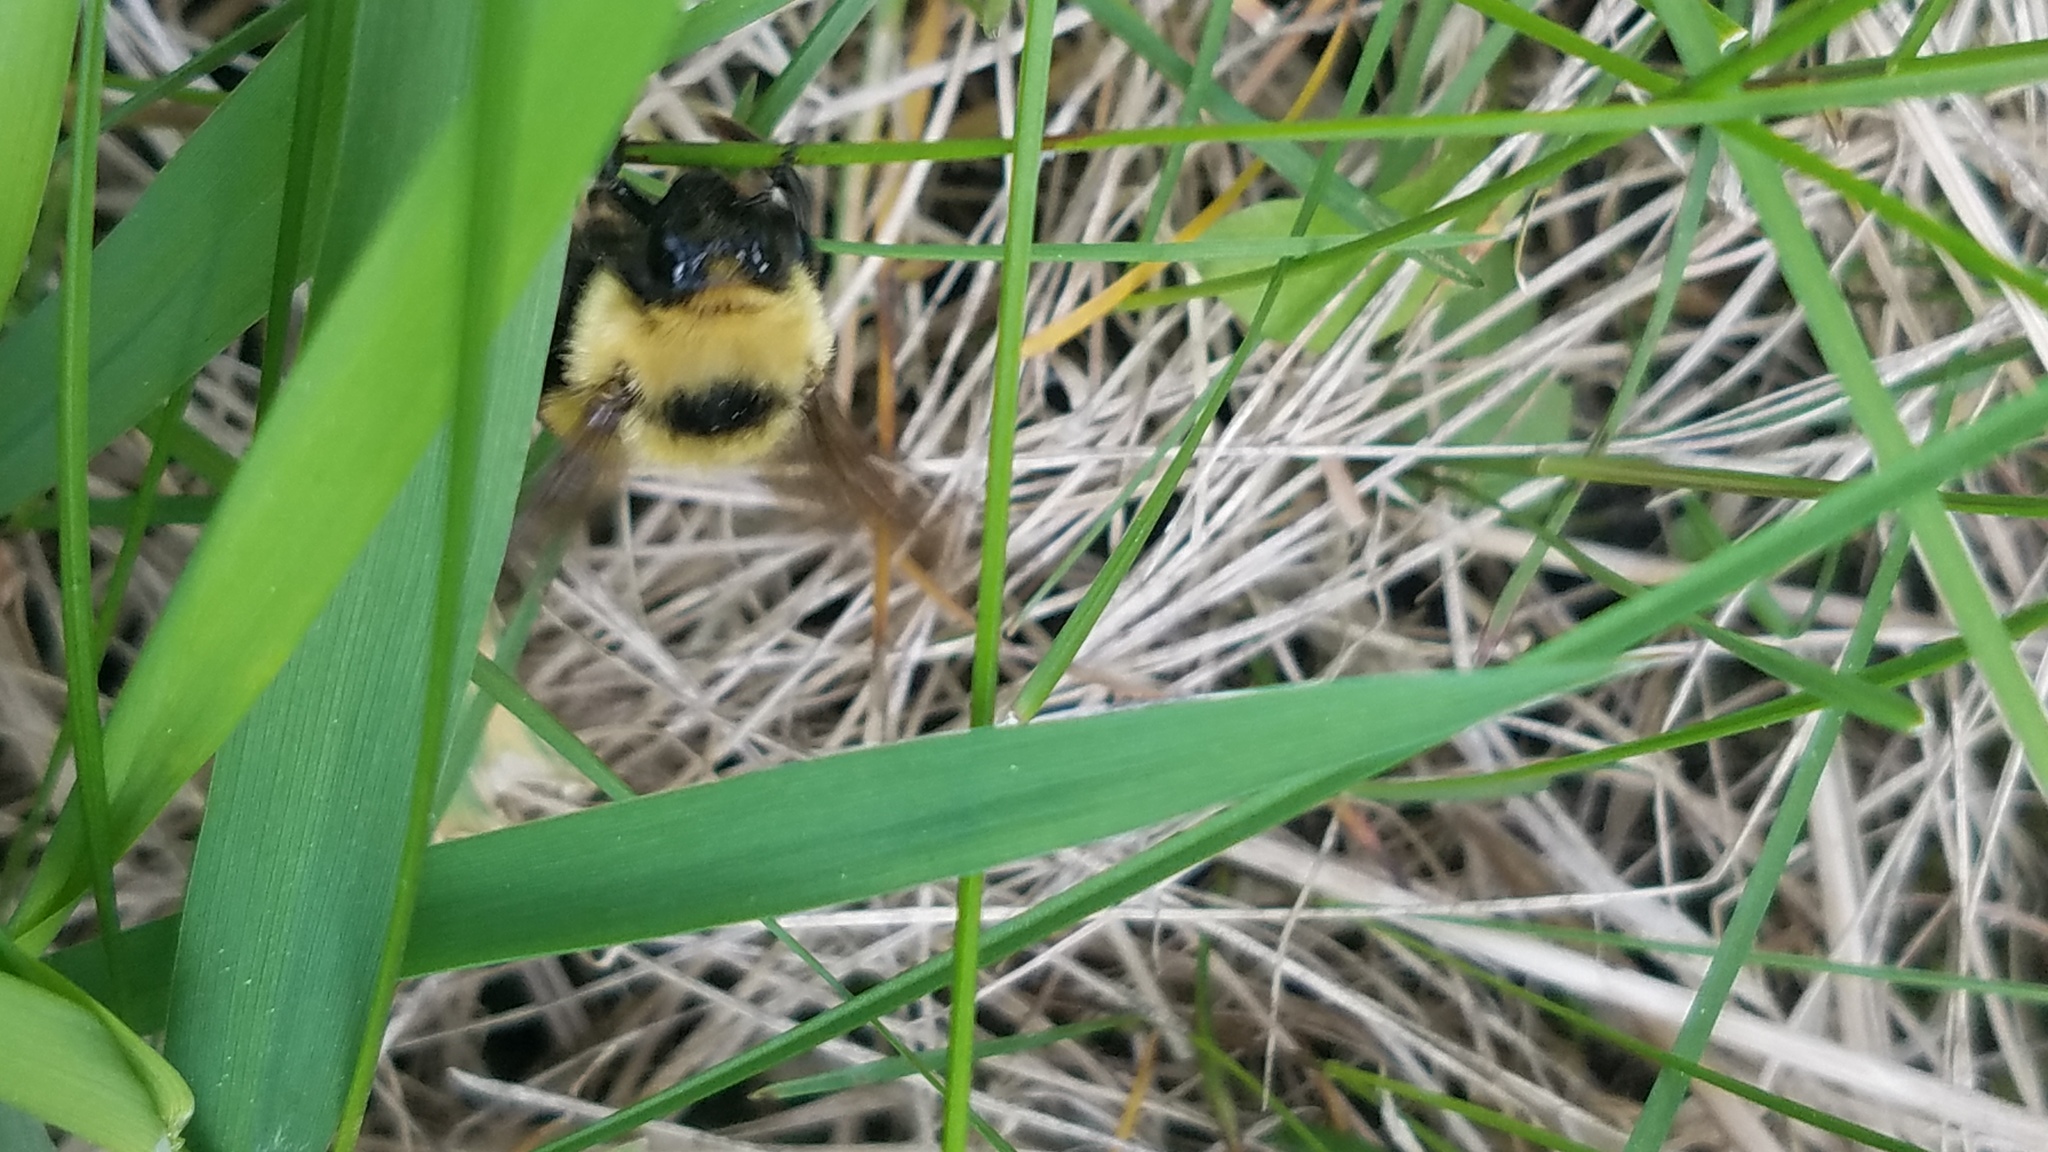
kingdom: Animalia
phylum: Arthropoda
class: Insecta
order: Hymenoptera
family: Apidae
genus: Bombus
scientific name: Bombus rufocinctus
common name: Red-belted bumble bee
